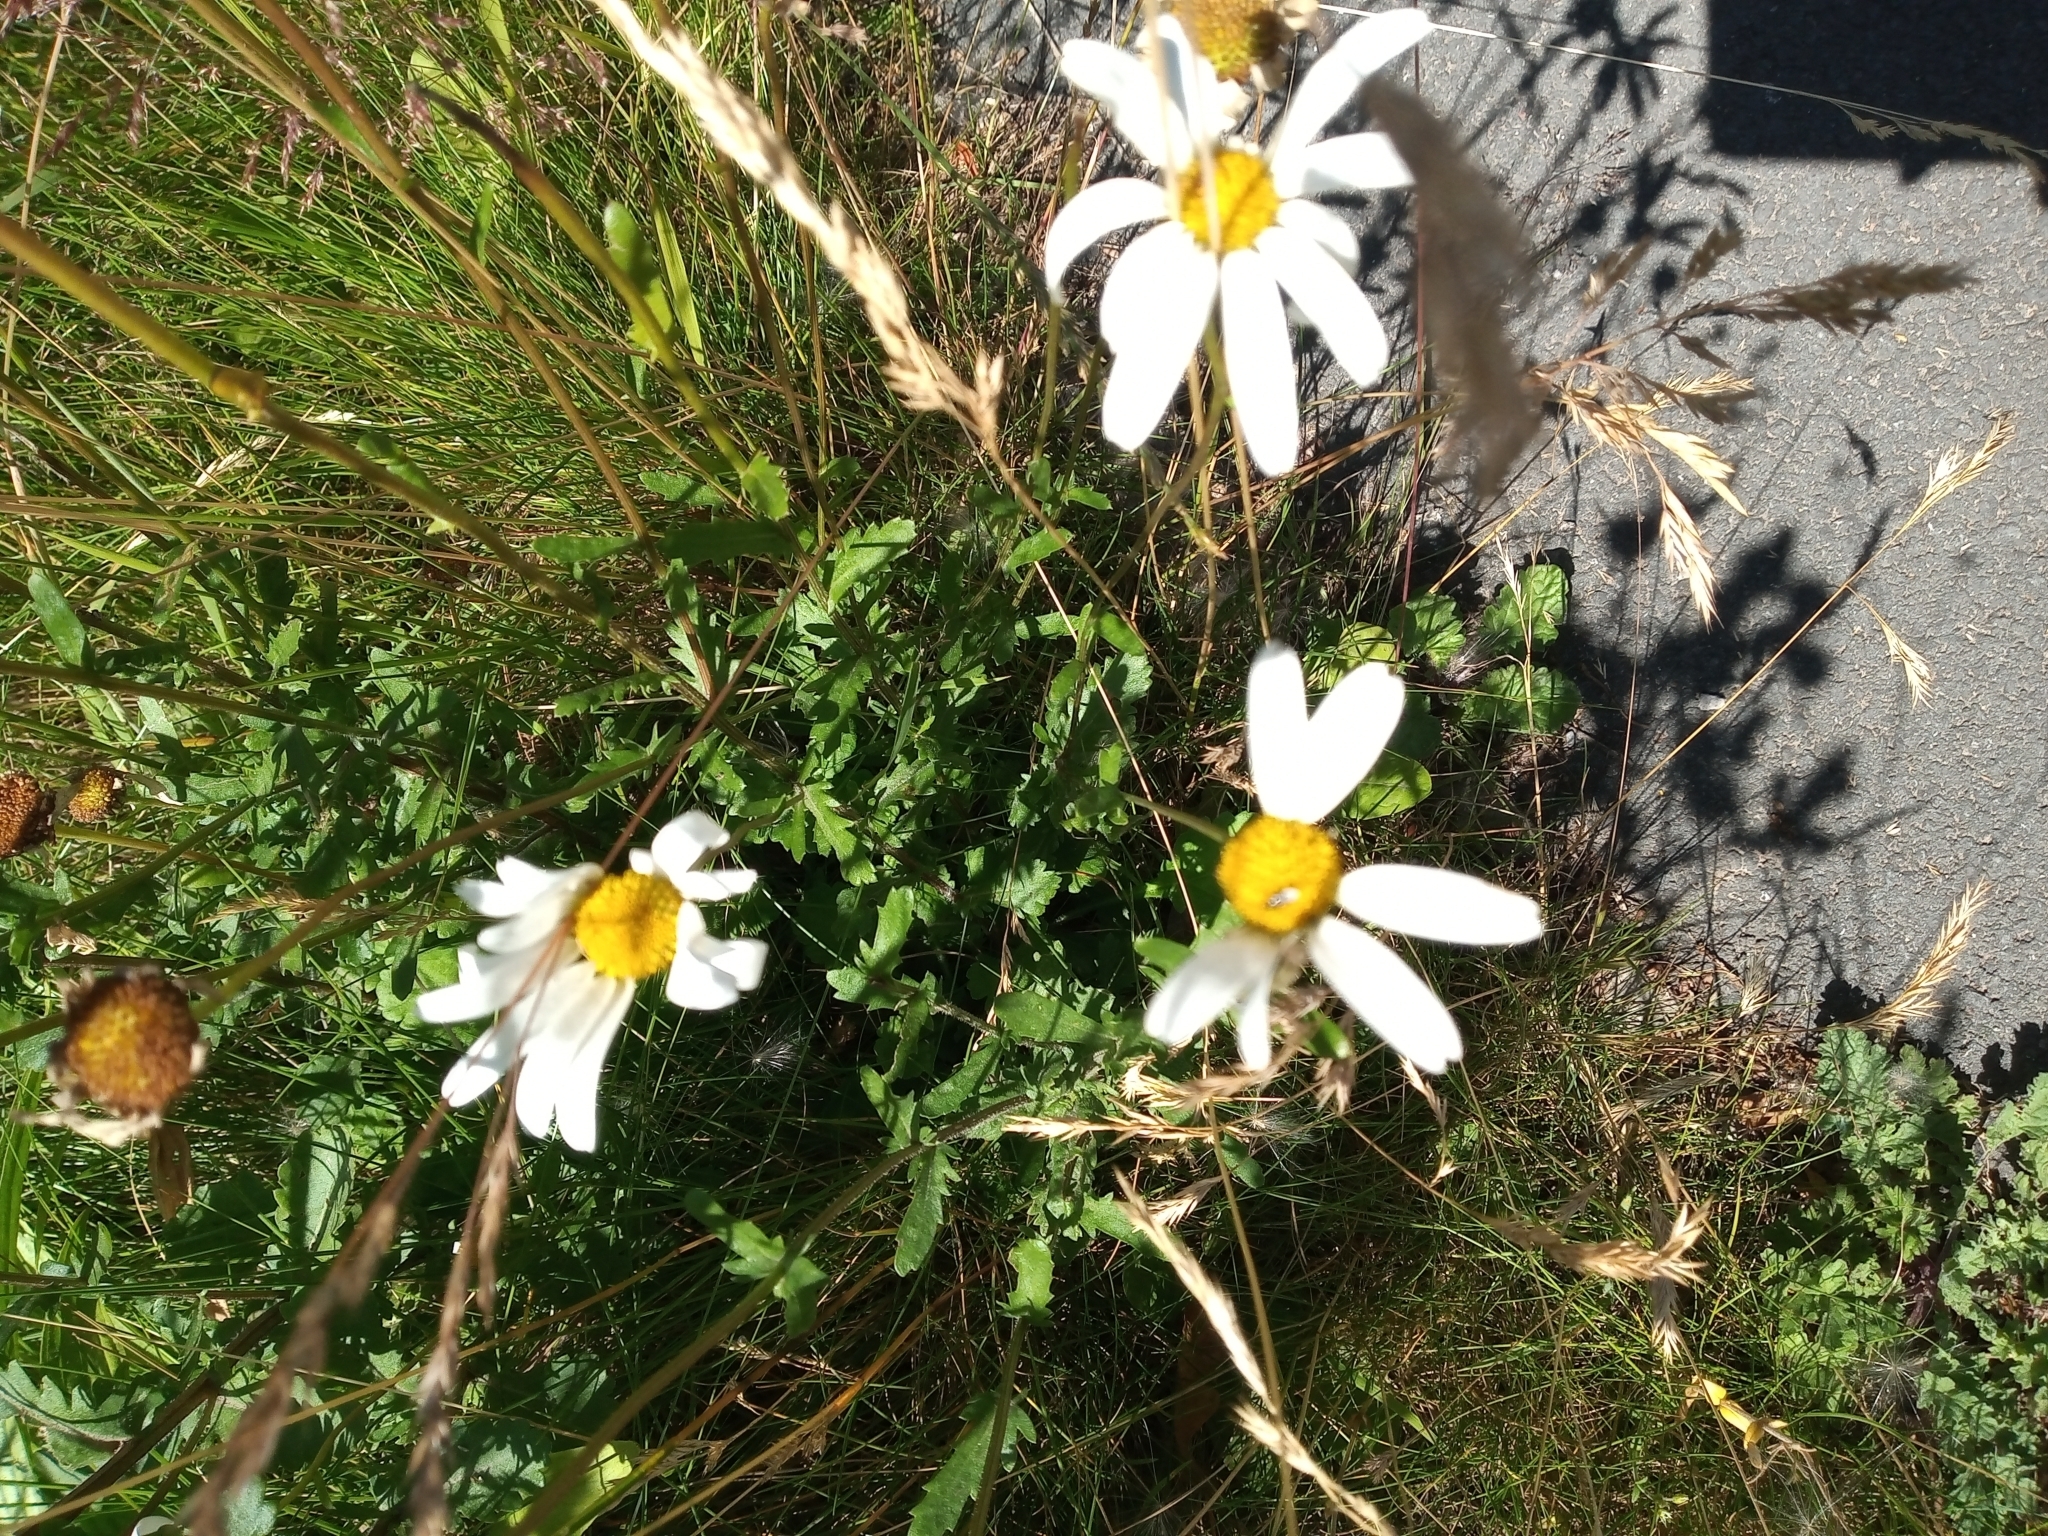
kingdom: Plantae
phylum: Tracheophyta
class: Magnoliopsida
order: Asterales
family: Asteraceae
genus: Leucanthemum
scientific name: Leucanthemum vulgare
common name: Oxeye daisy
